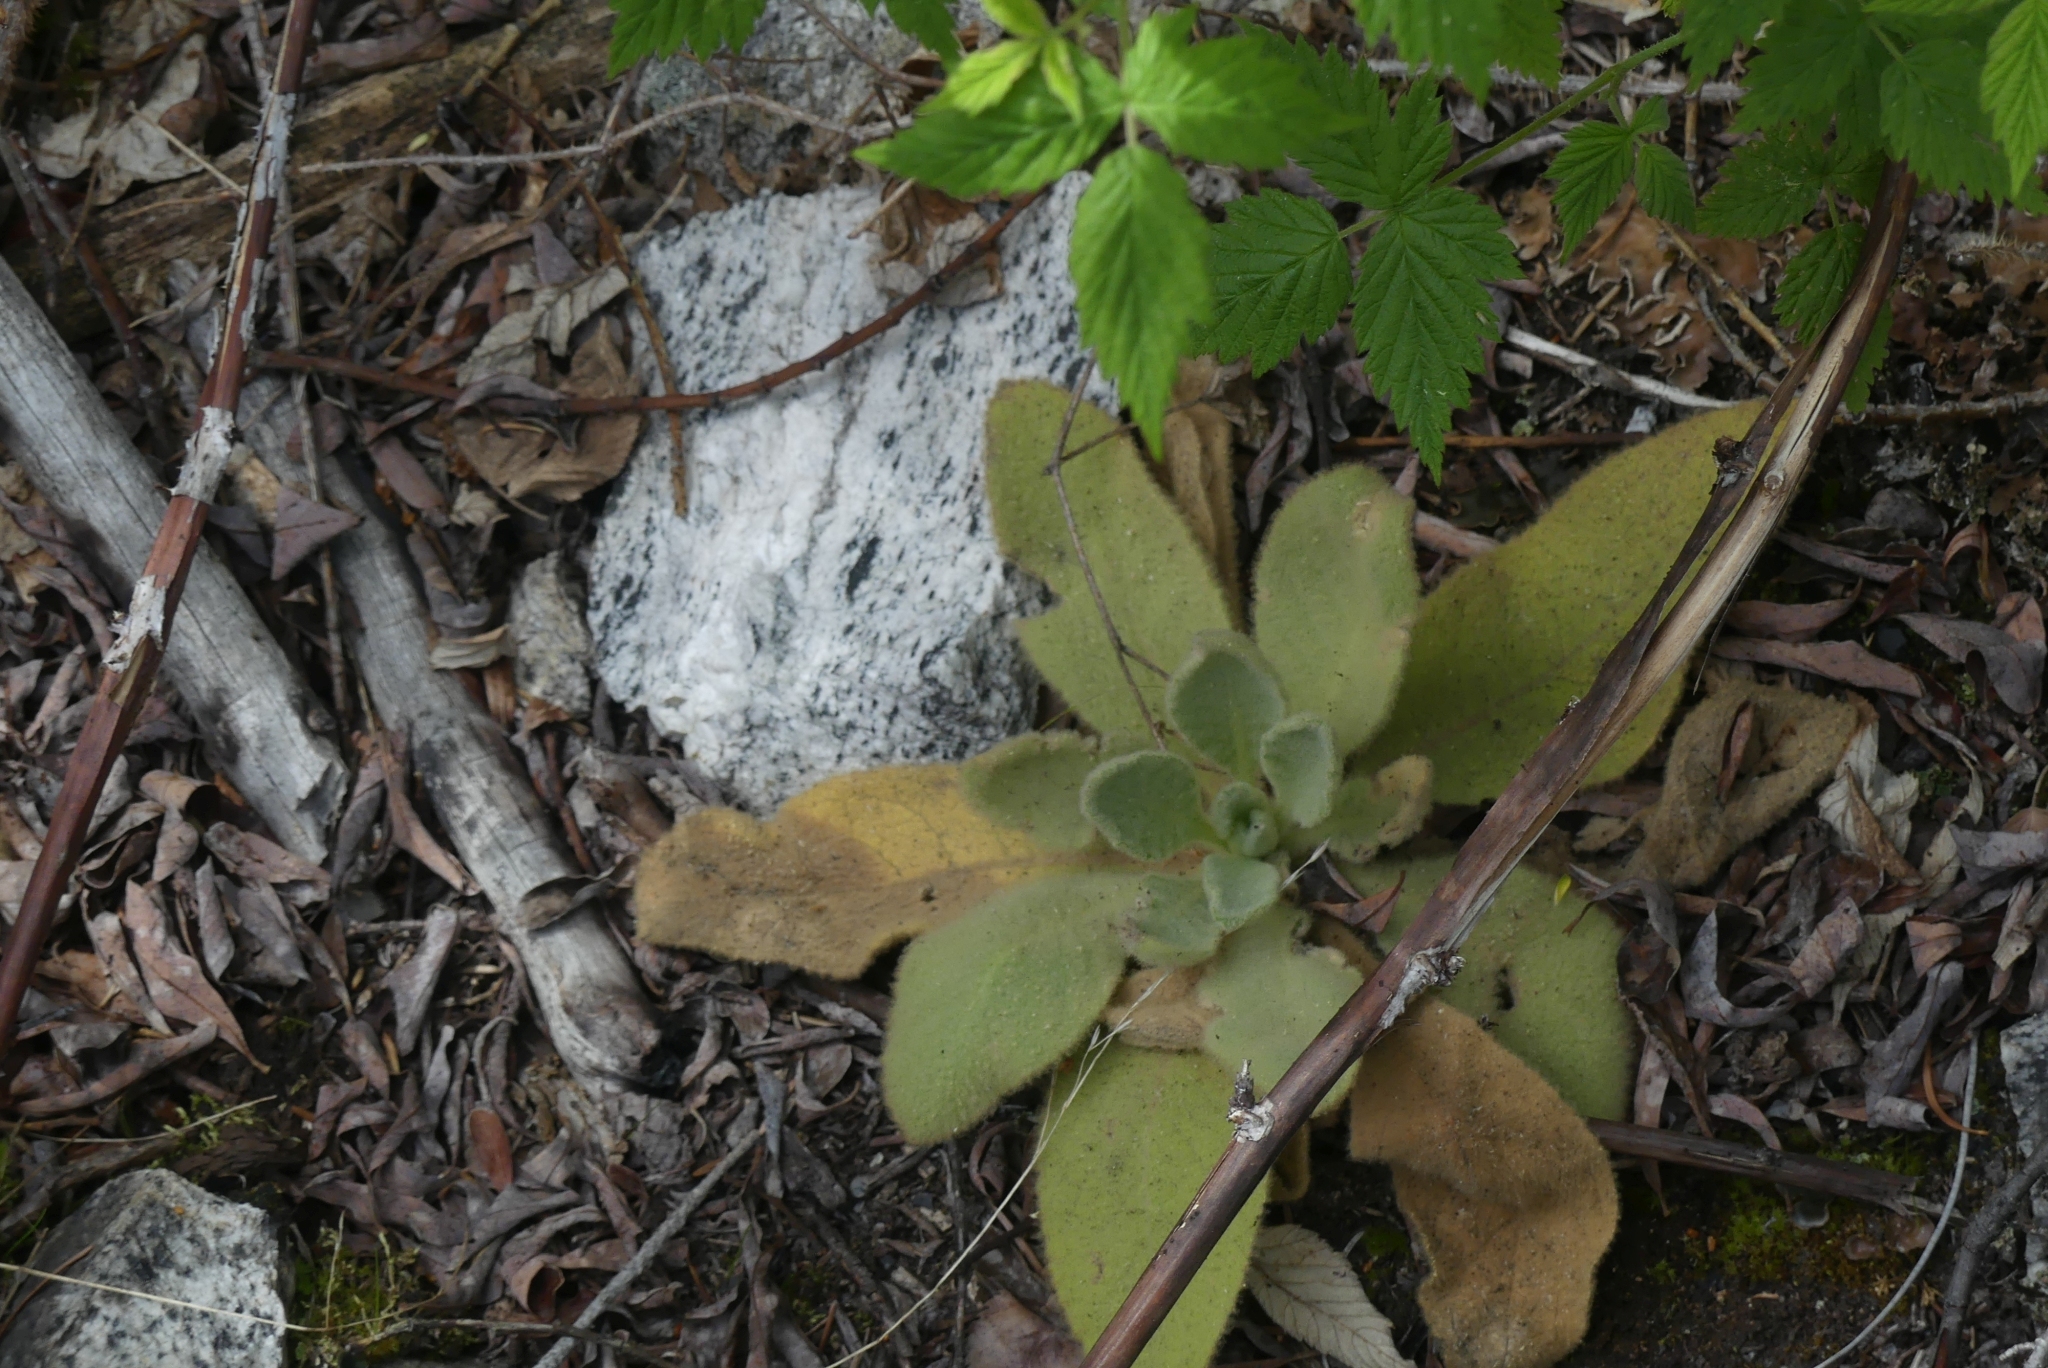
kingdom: Plantae
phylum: Tracheophyta
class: Magnoliopsida
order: Lamiales
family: Scrophulariaceae
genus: Verbascum
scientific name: Verbascum thapsus
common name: Common mullein
